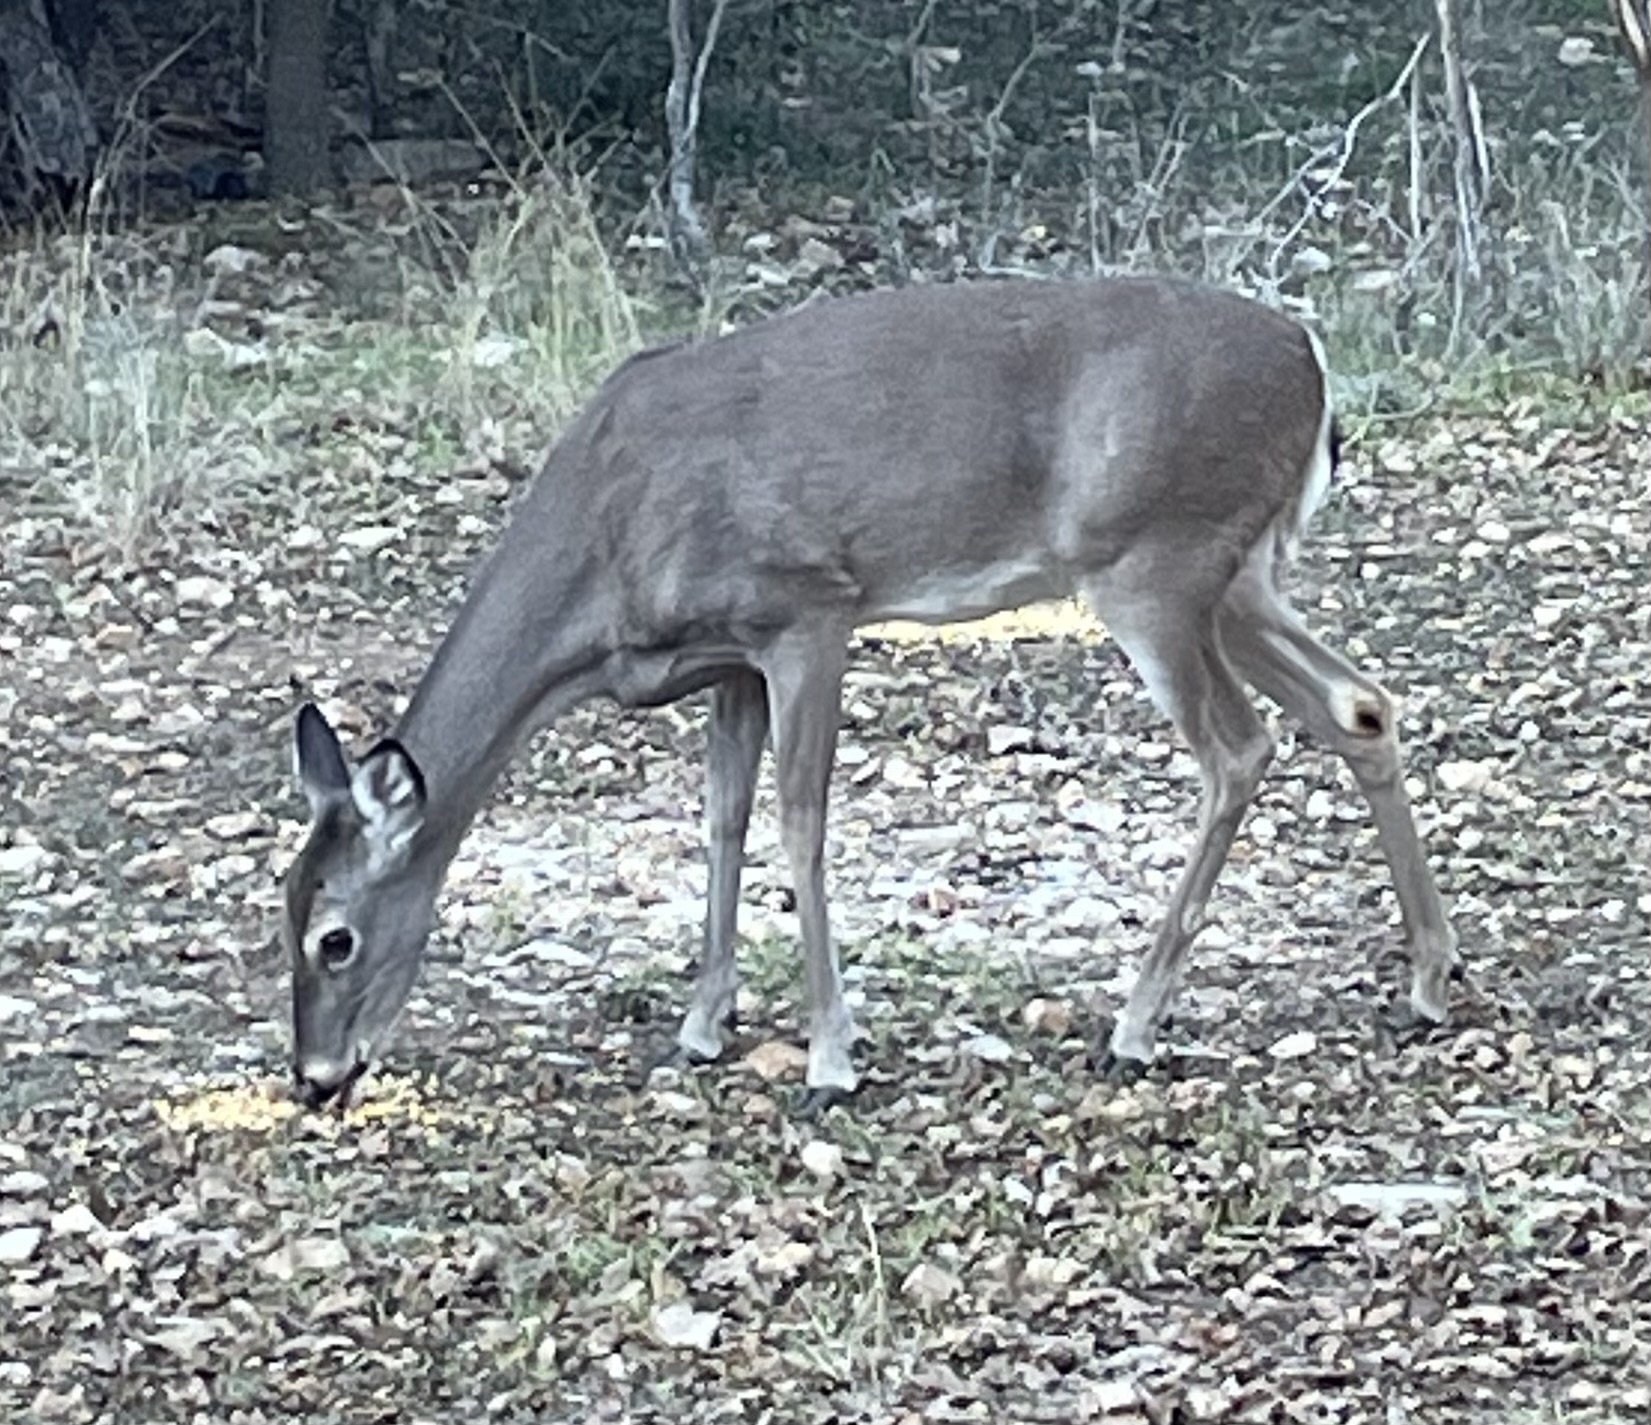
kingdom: Animalia
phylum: Chordata
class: Mammalia
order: Artiodactyla
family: Cervidae
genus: Odocoileus
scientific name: Odocoileus virginianus
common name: White-tailed deer
